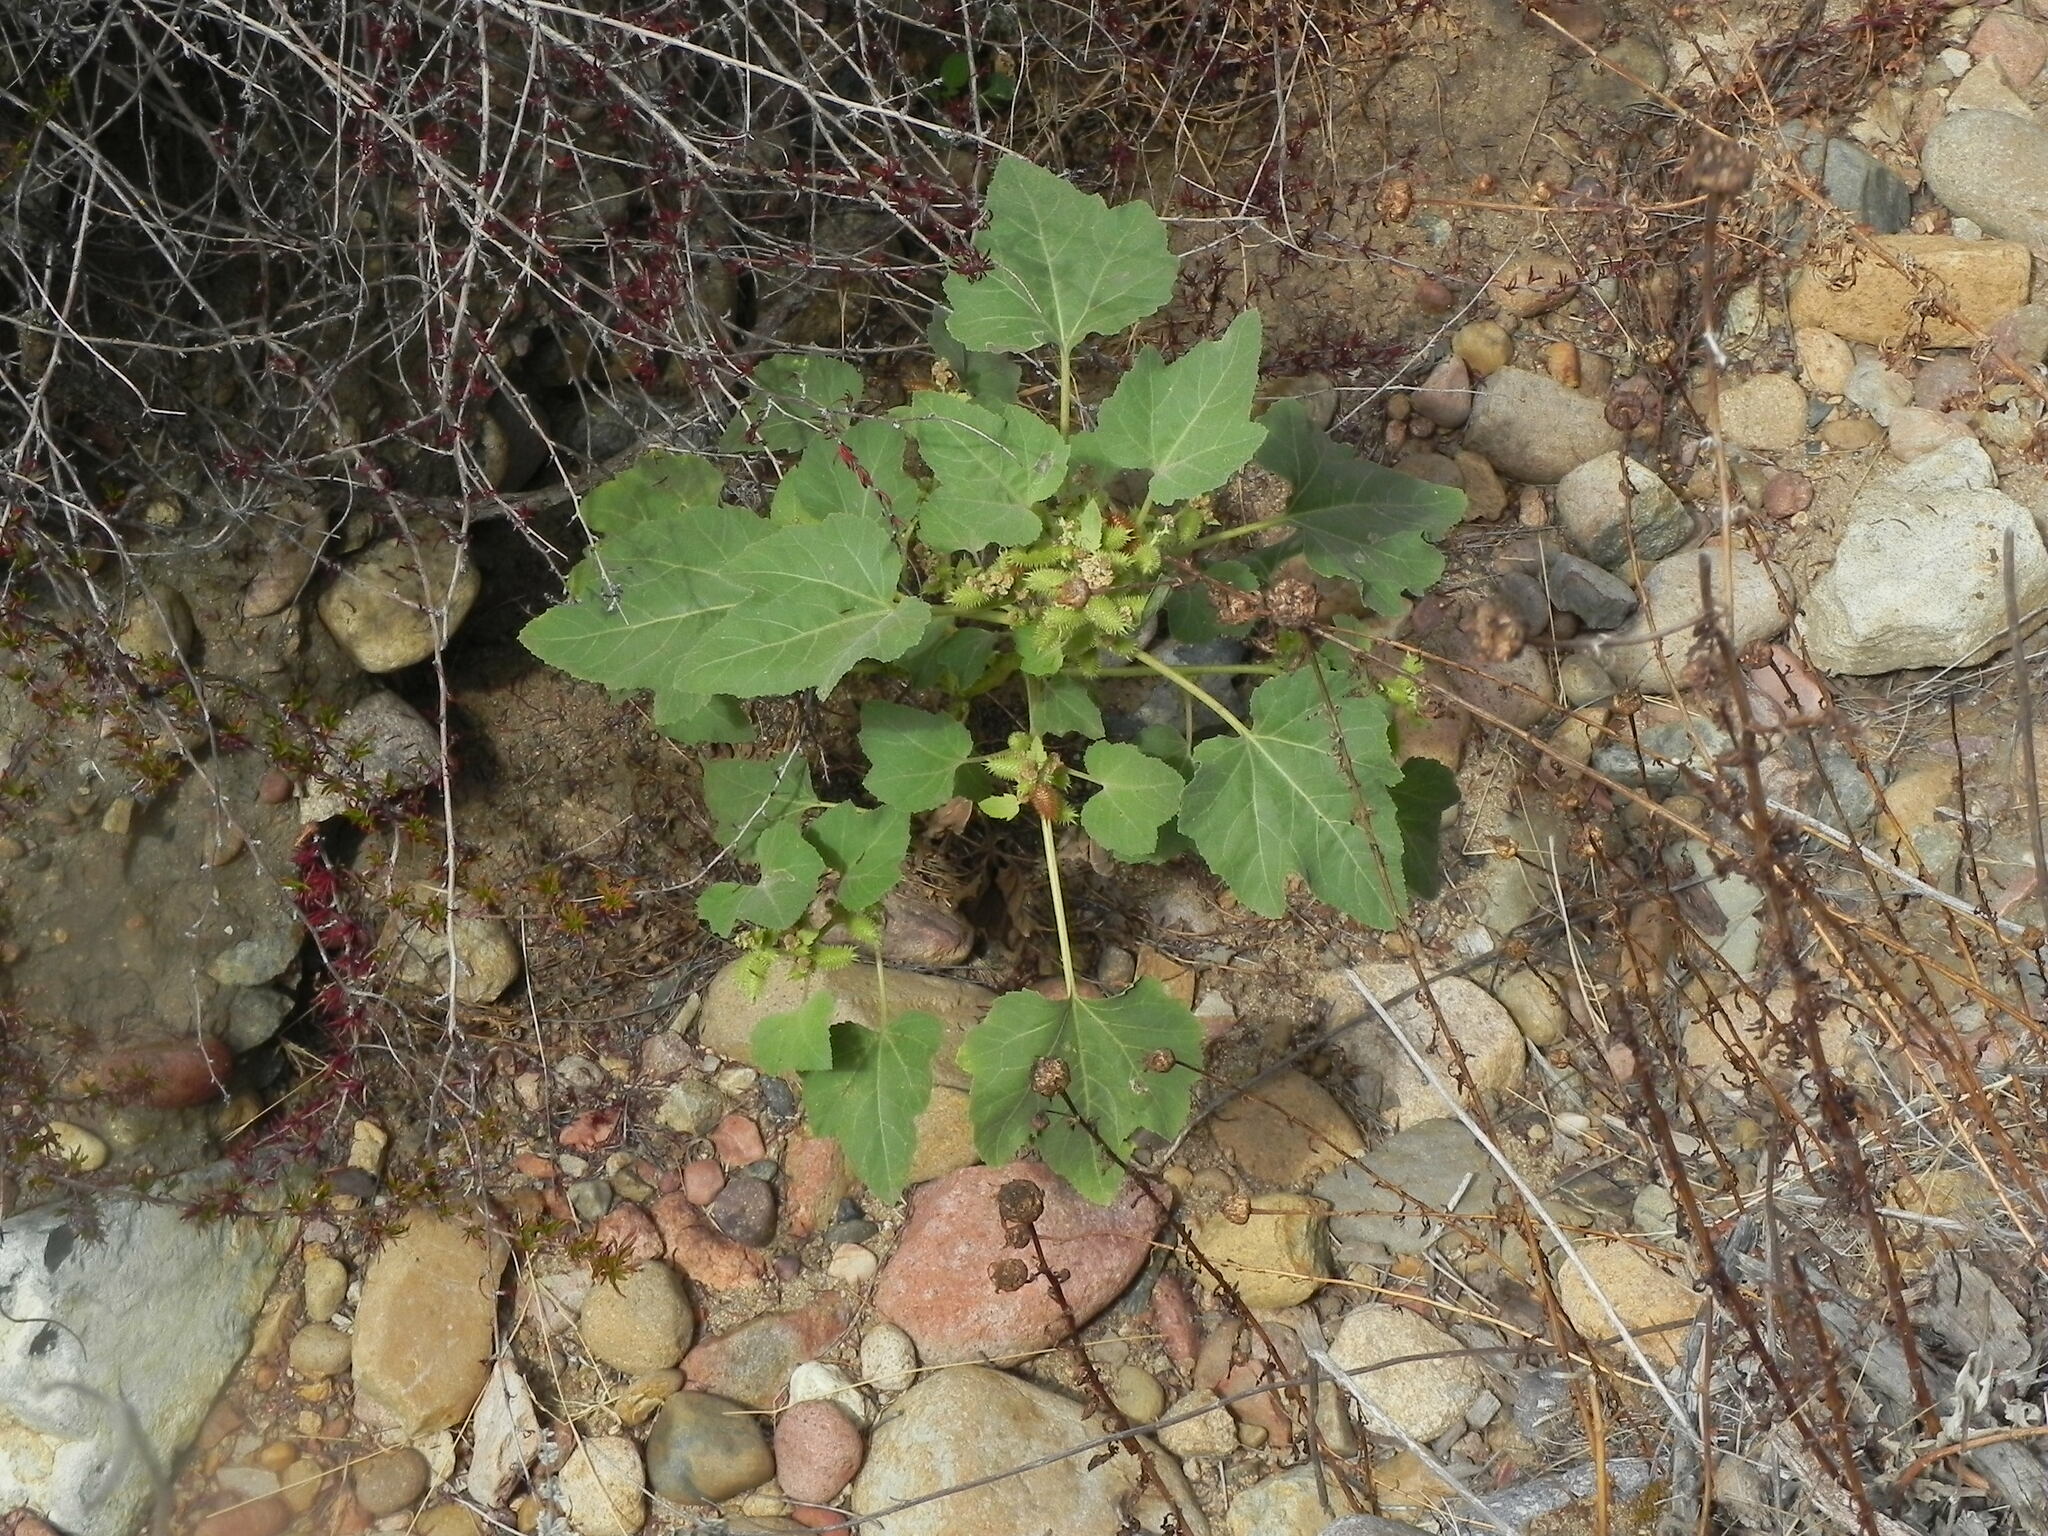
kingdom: Plantae
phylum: Tracheophyta
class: Magnoliopsida
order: Asterales
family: Asteraceae
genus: Xanthium
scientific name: Xanthium strumarium
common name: Rough cocklebur
